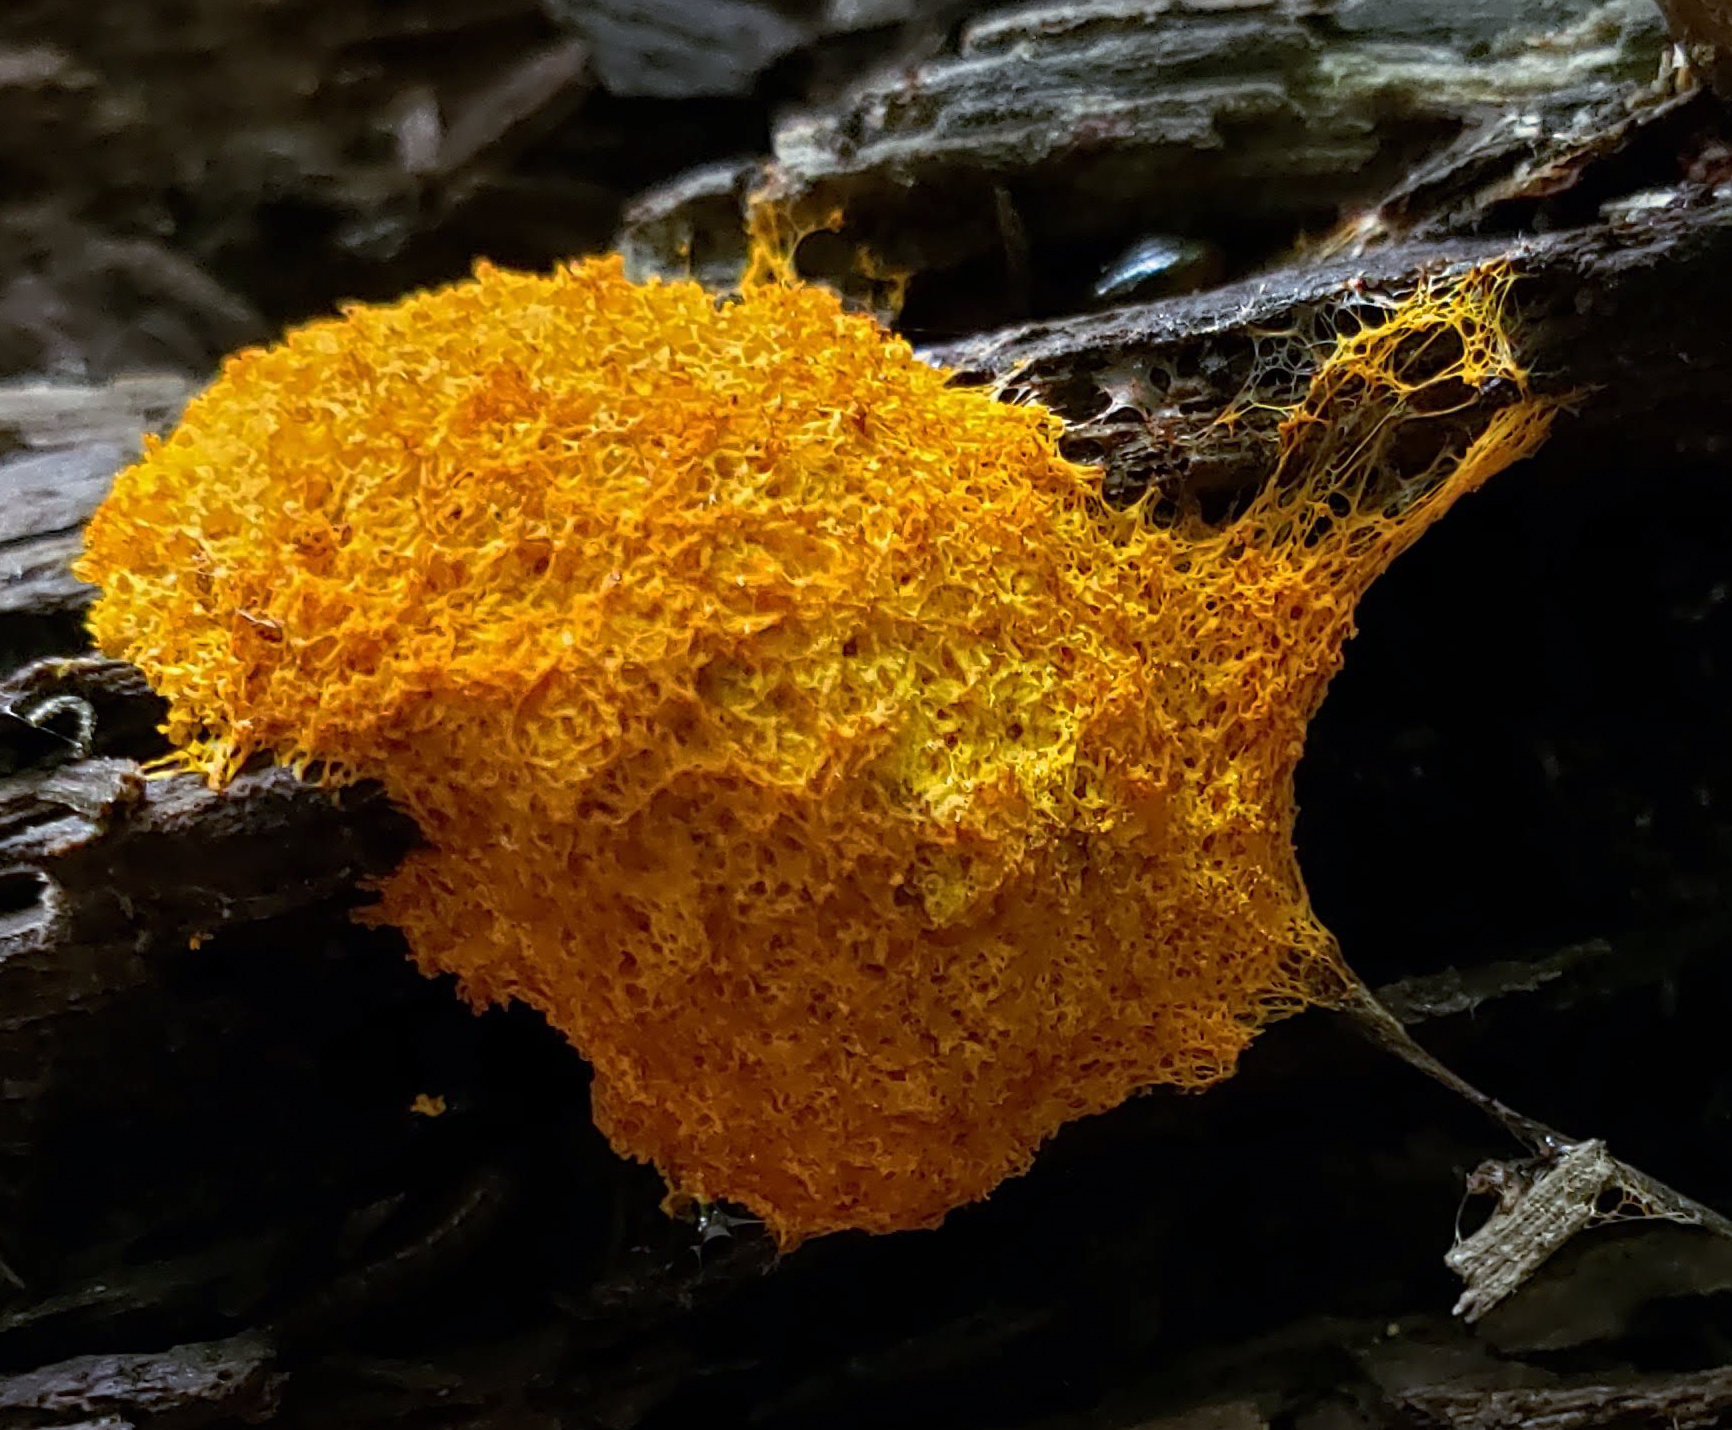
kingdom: Protozoa
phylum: Mycetozoa
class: Myxomycetes
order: Physarales
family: Physaraceae
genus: Fuligo
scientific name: Fuligo septica
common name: Dog vomit slime mold
